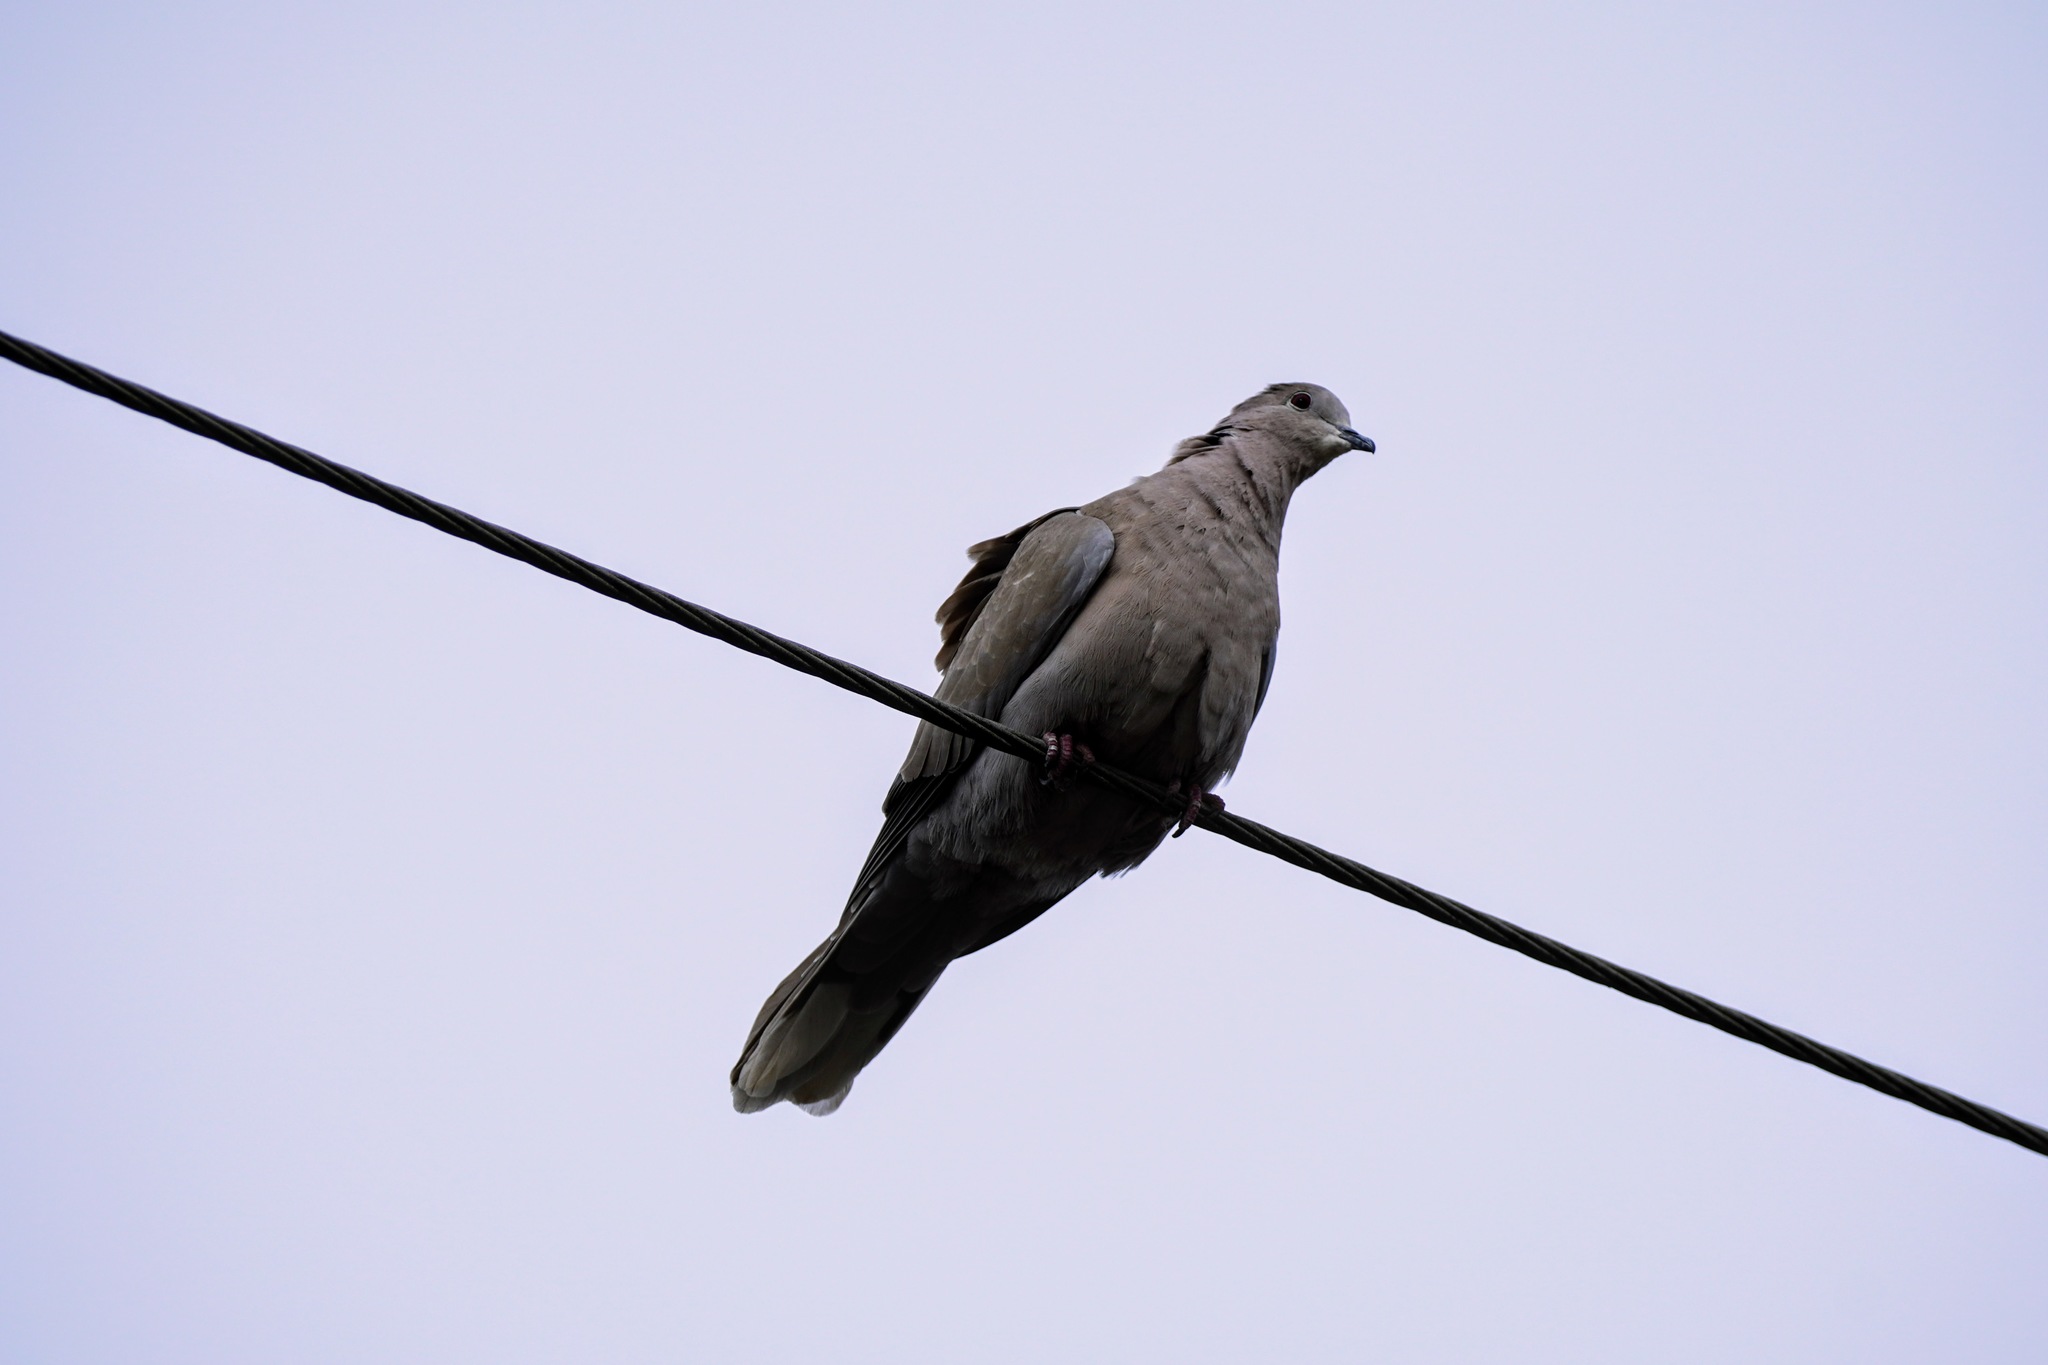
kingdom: Animalia
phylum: Chordata
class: Aves
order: Columbiformes
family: Columbidae
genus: Streptopelia
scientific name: Streptopelia decaocto
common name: Eurasian collared dove
